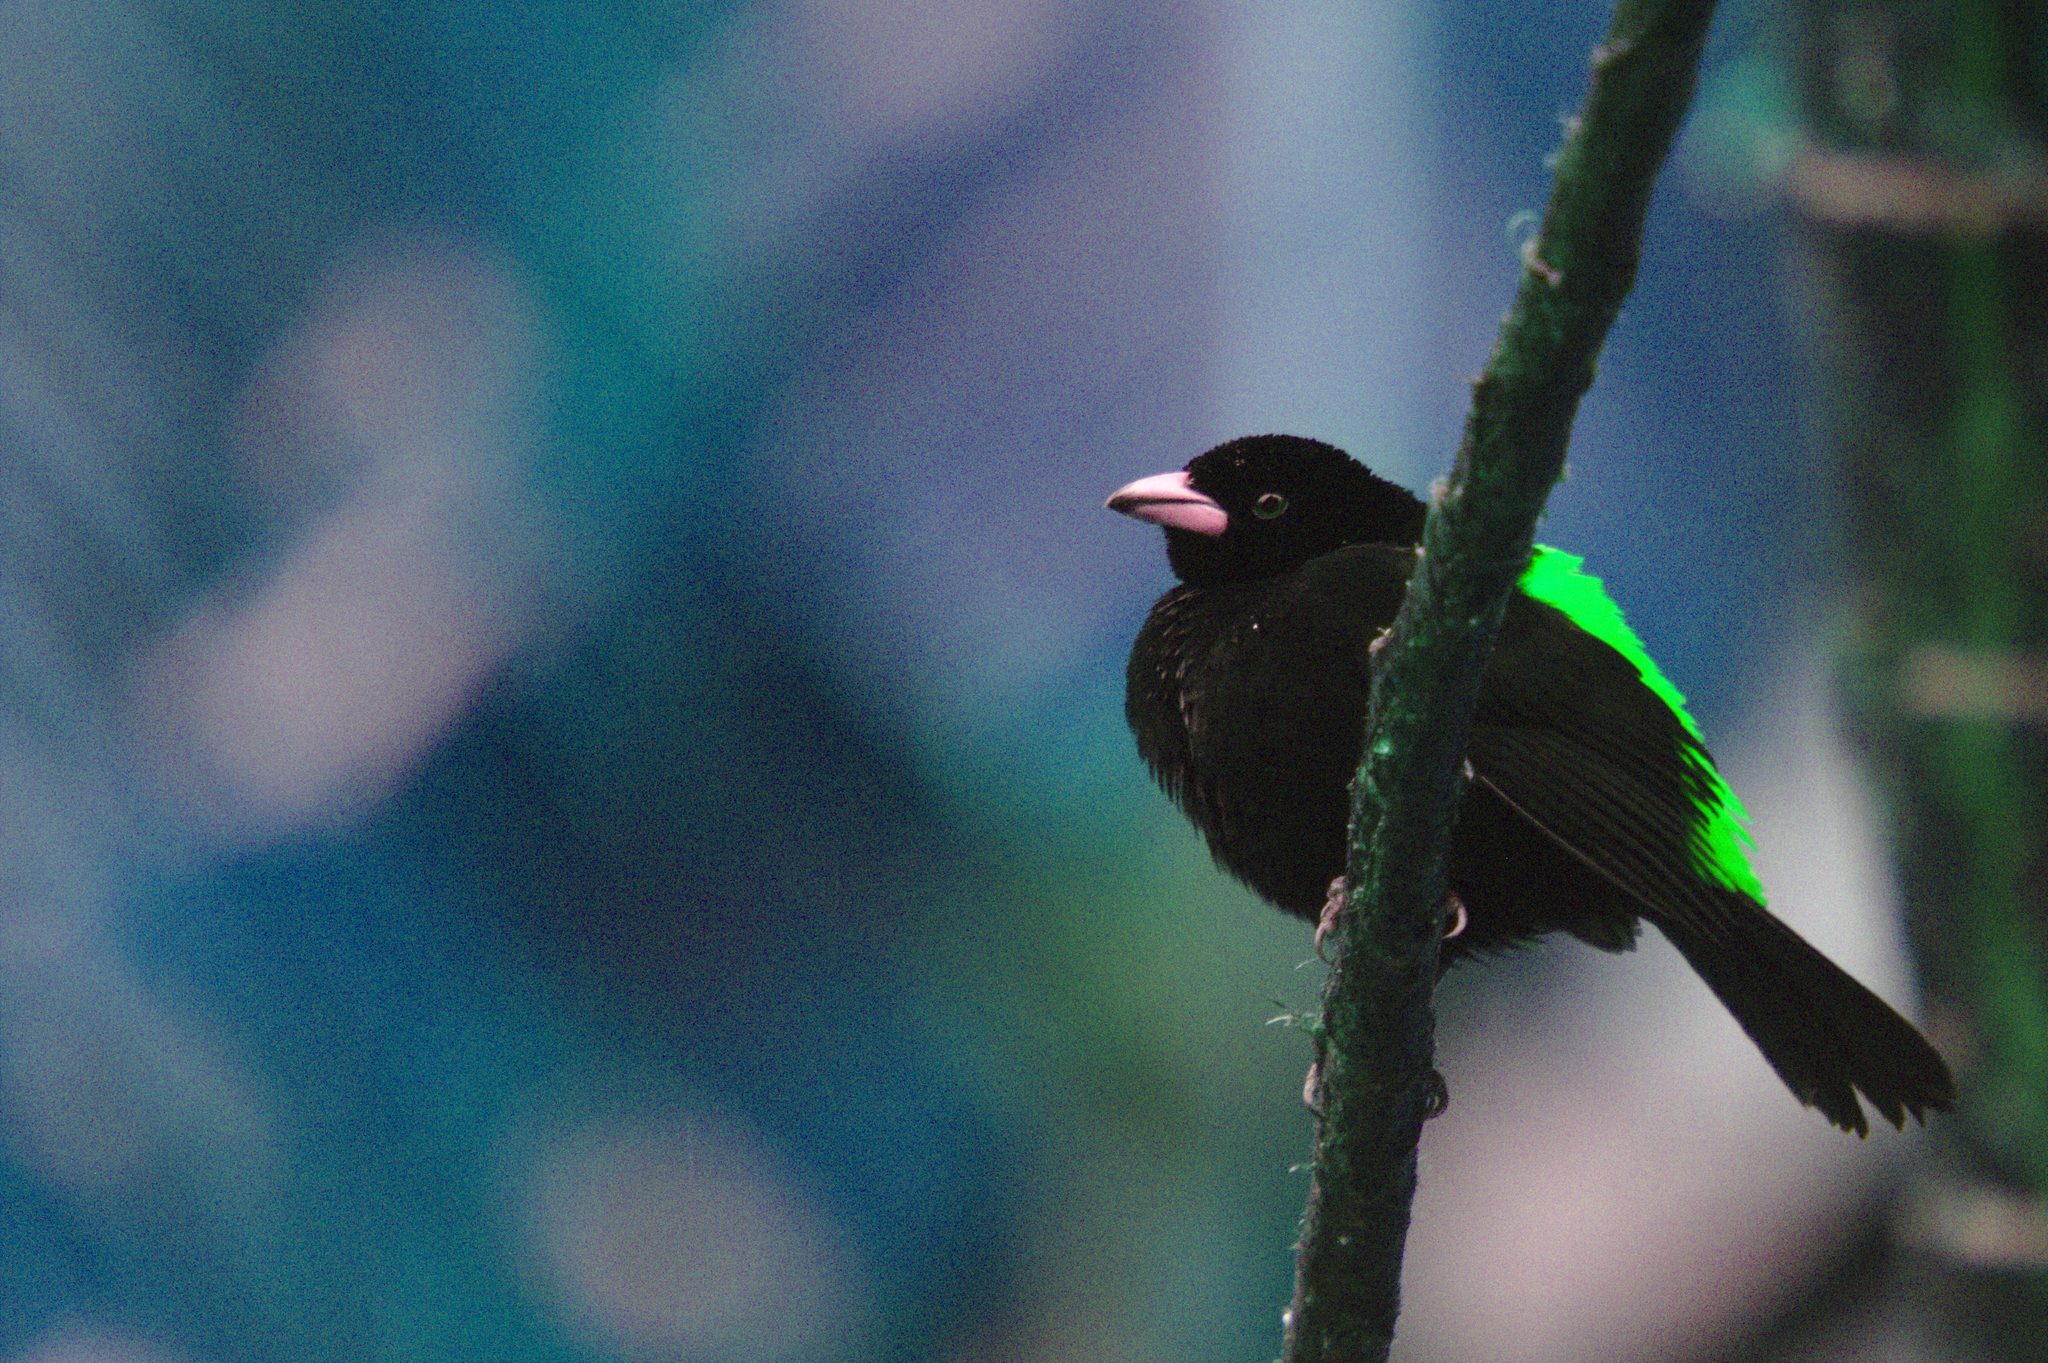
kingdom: Animalia
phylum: Chordata
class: Aves
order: Passeriformes
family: Thraupidae
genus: Ramphocelus
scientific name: Ramphocelus passerinii
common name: Passerini's tanager
